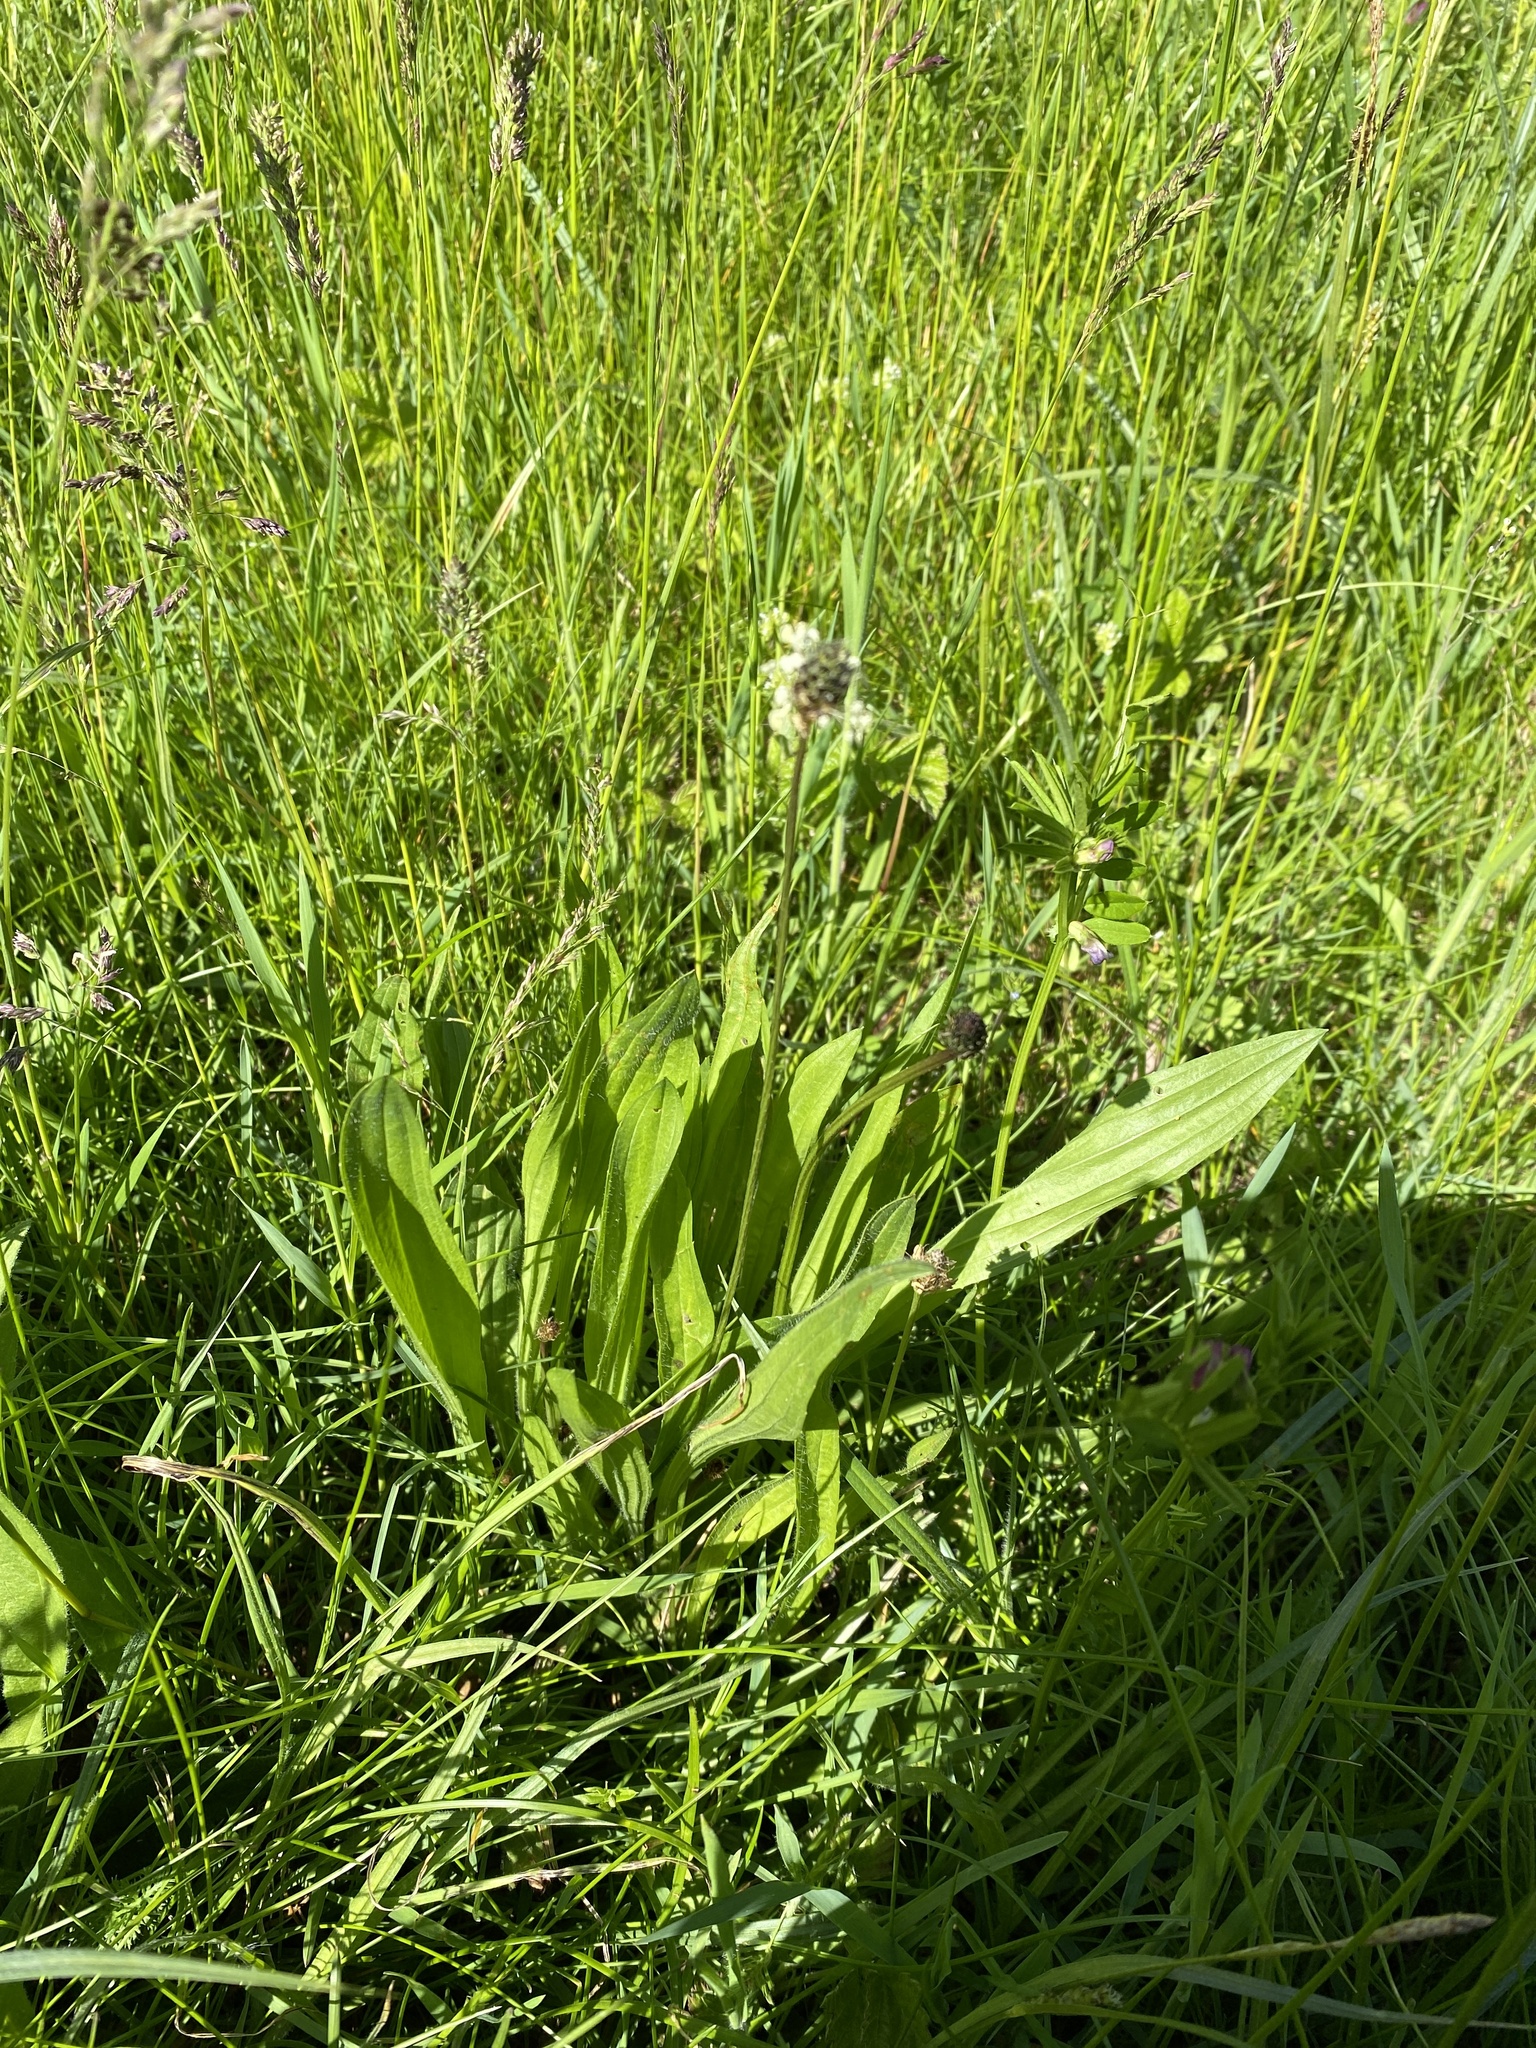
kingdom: Plantae
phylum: Tracheophyta
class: Magnoliopsida
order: Lamiales
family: Plantaginaceae
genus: Plantago
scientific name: Plantago lanceolata
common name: Ribwort plantain
